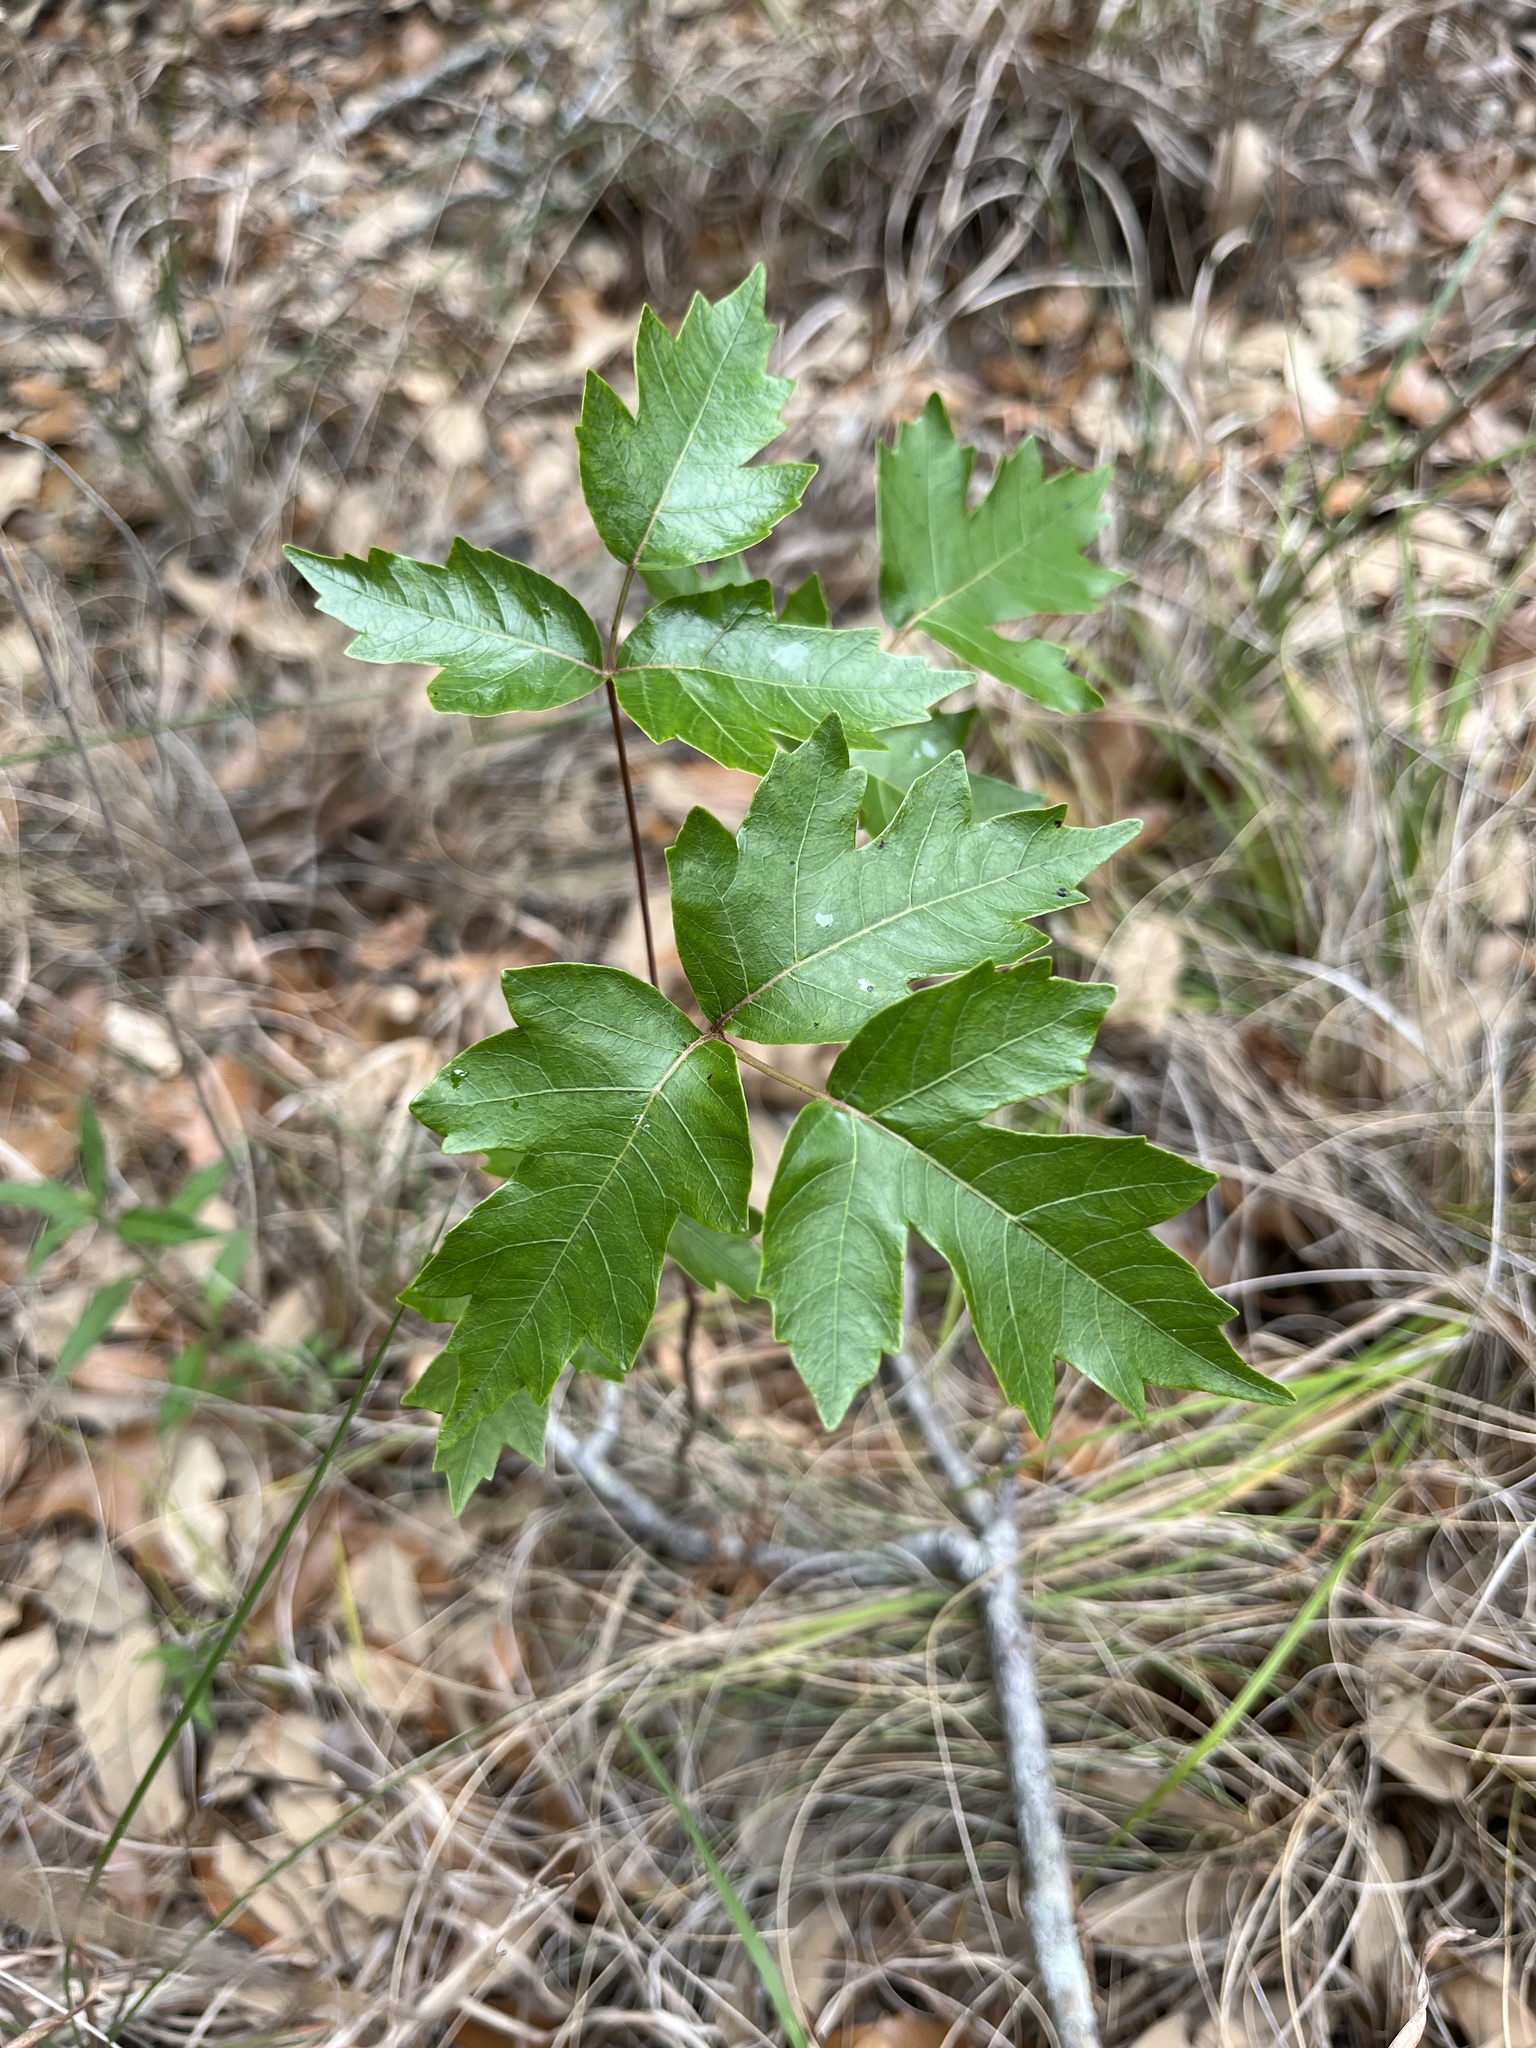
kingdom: Plantae
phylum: Tracheophyta
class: Magnoliopsida
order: Sapindales
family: Anacardiaceae
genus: Toxicodendron
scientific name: Toxicodendron radicans
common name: Poison ivy
